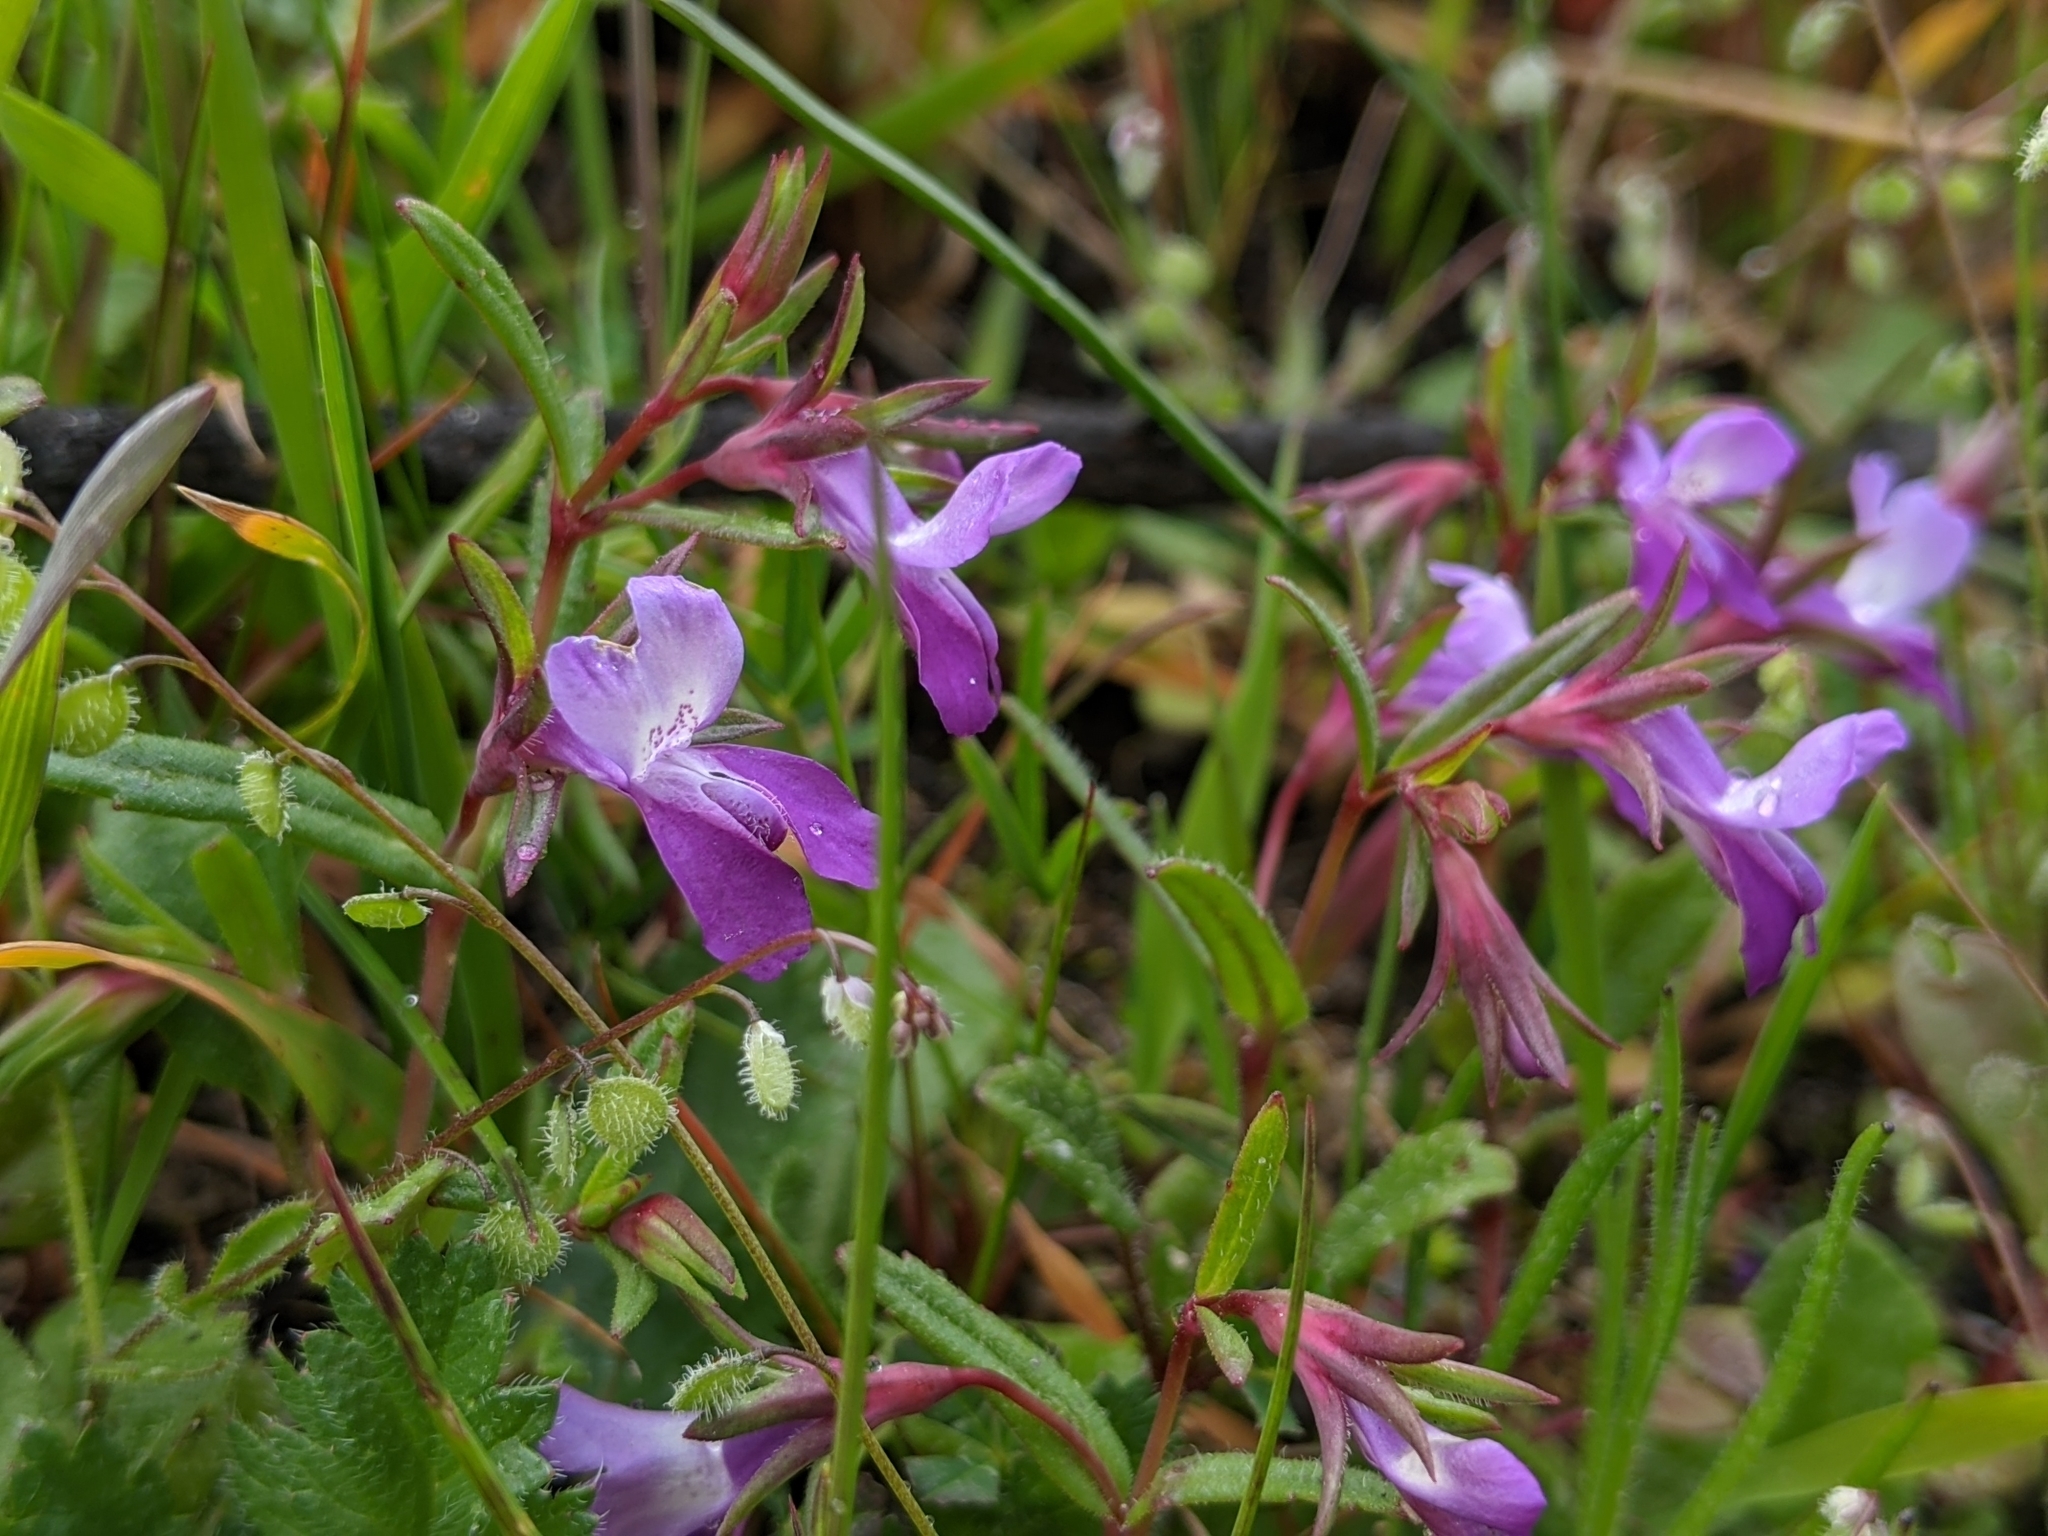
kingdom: Plantae
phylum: Tracheophyta
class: Magnoliopsida
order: Lamiales
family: Plantaginaceae
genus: Collinsia
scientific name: Collinsia sparsiflora
